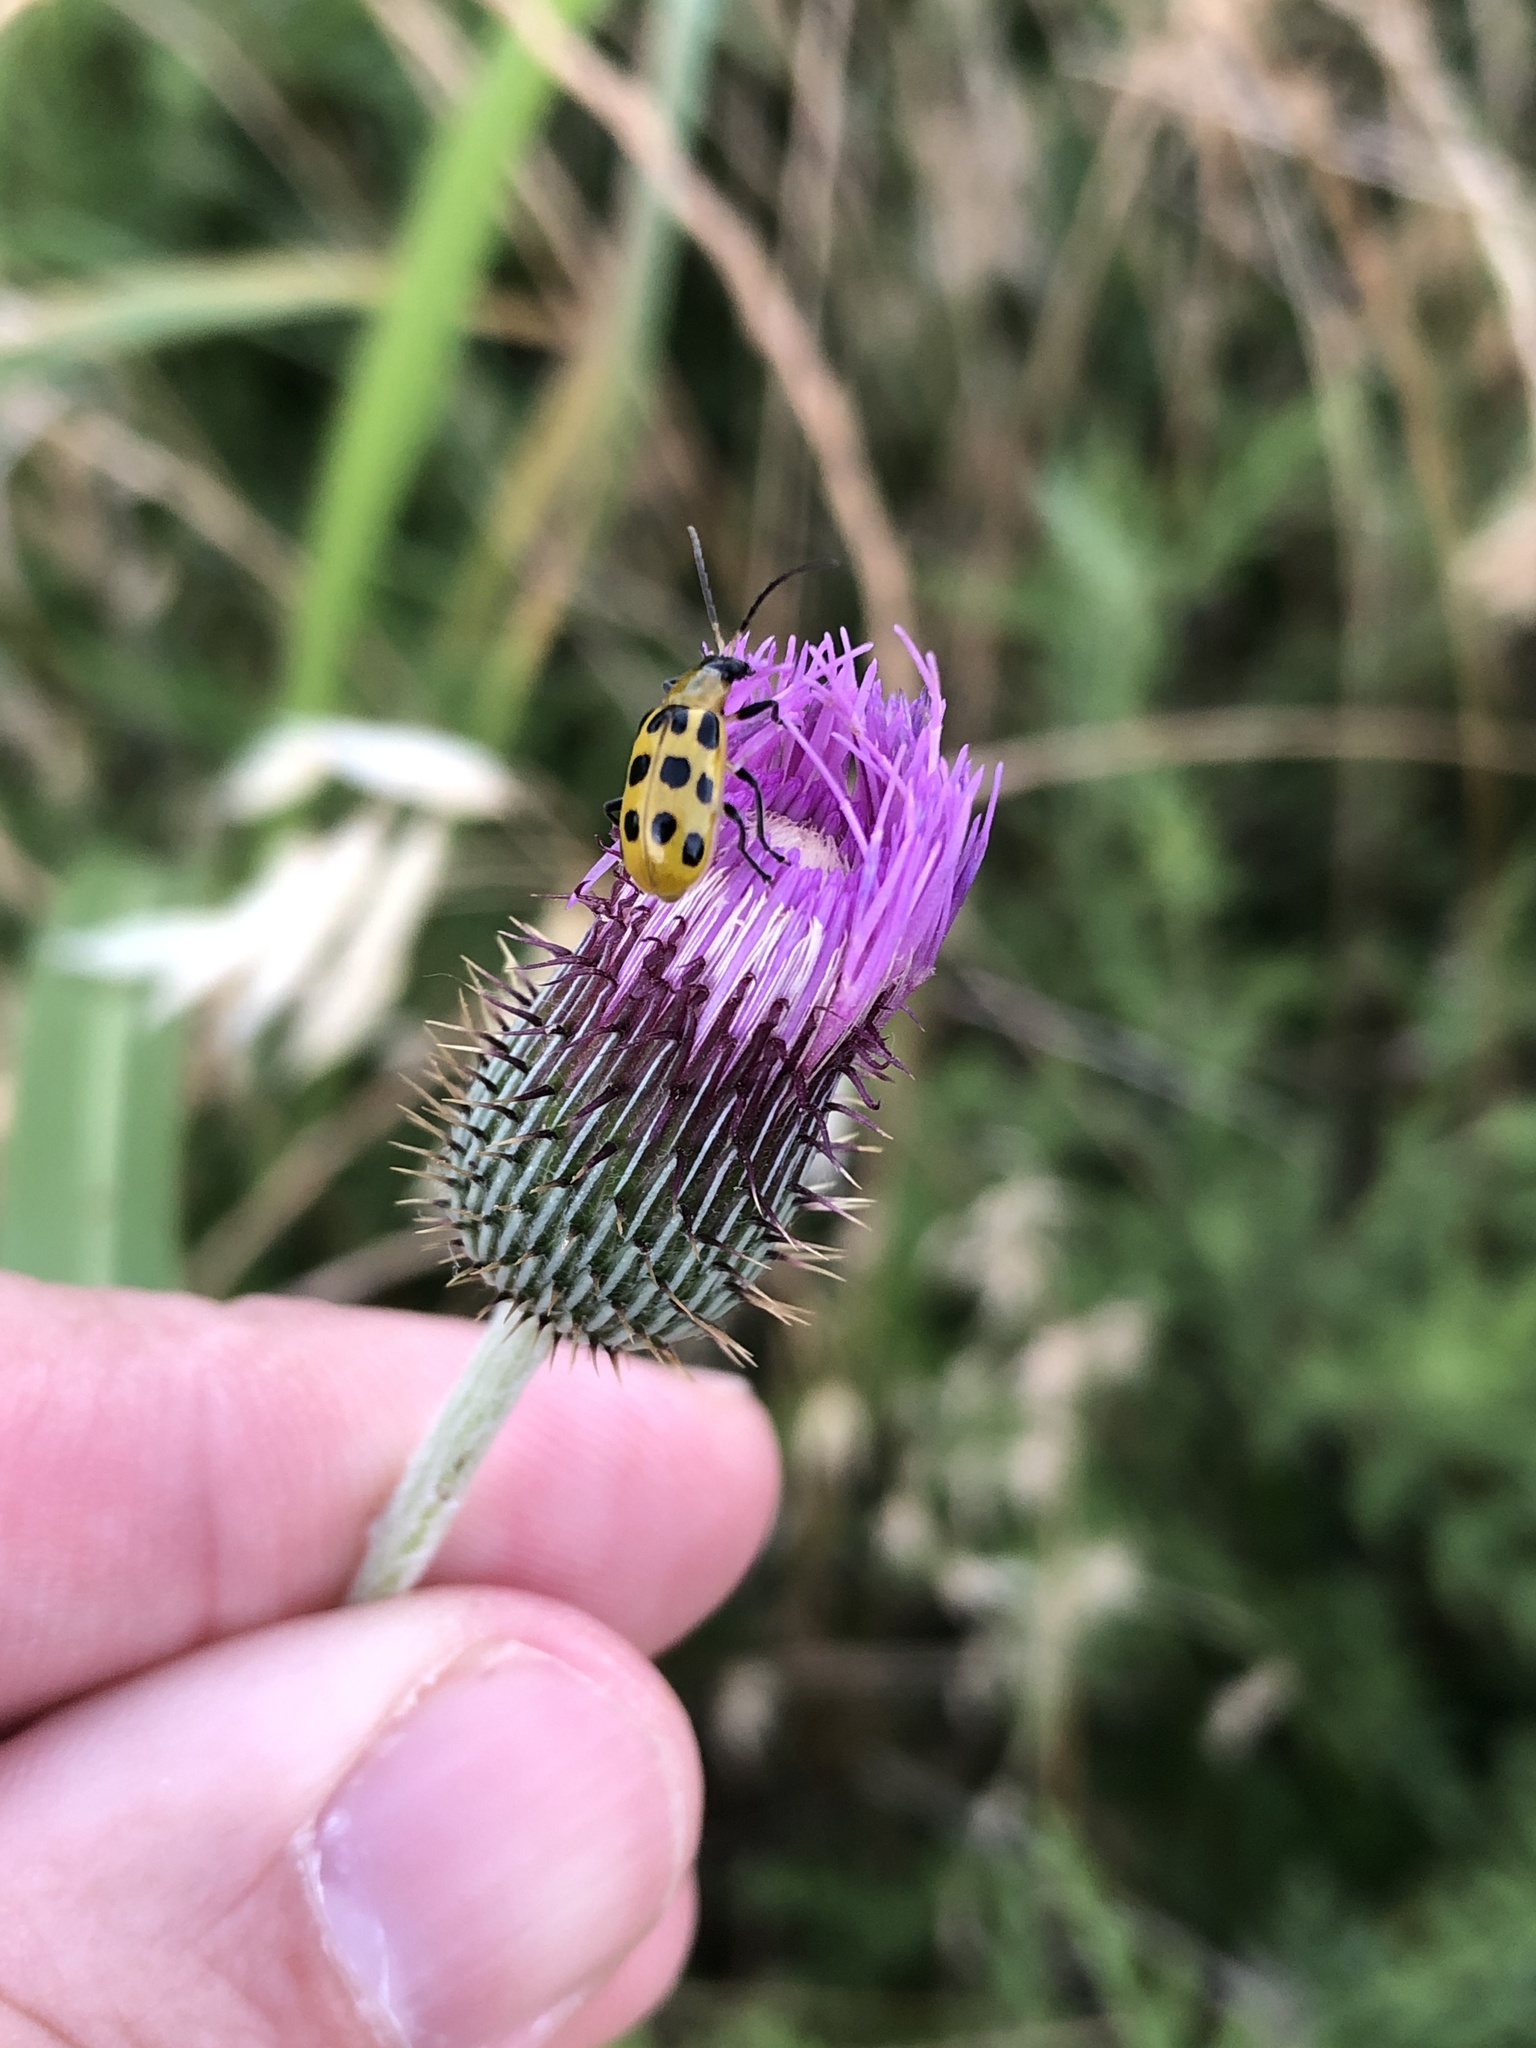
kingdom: Animalia
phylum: Arthropoda
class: Insecta
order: Coleoptera
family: Chrysomelidae
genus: Diabrotica
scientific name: Diabrotica undecimpunctata
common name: Spotted cucumber beetle
